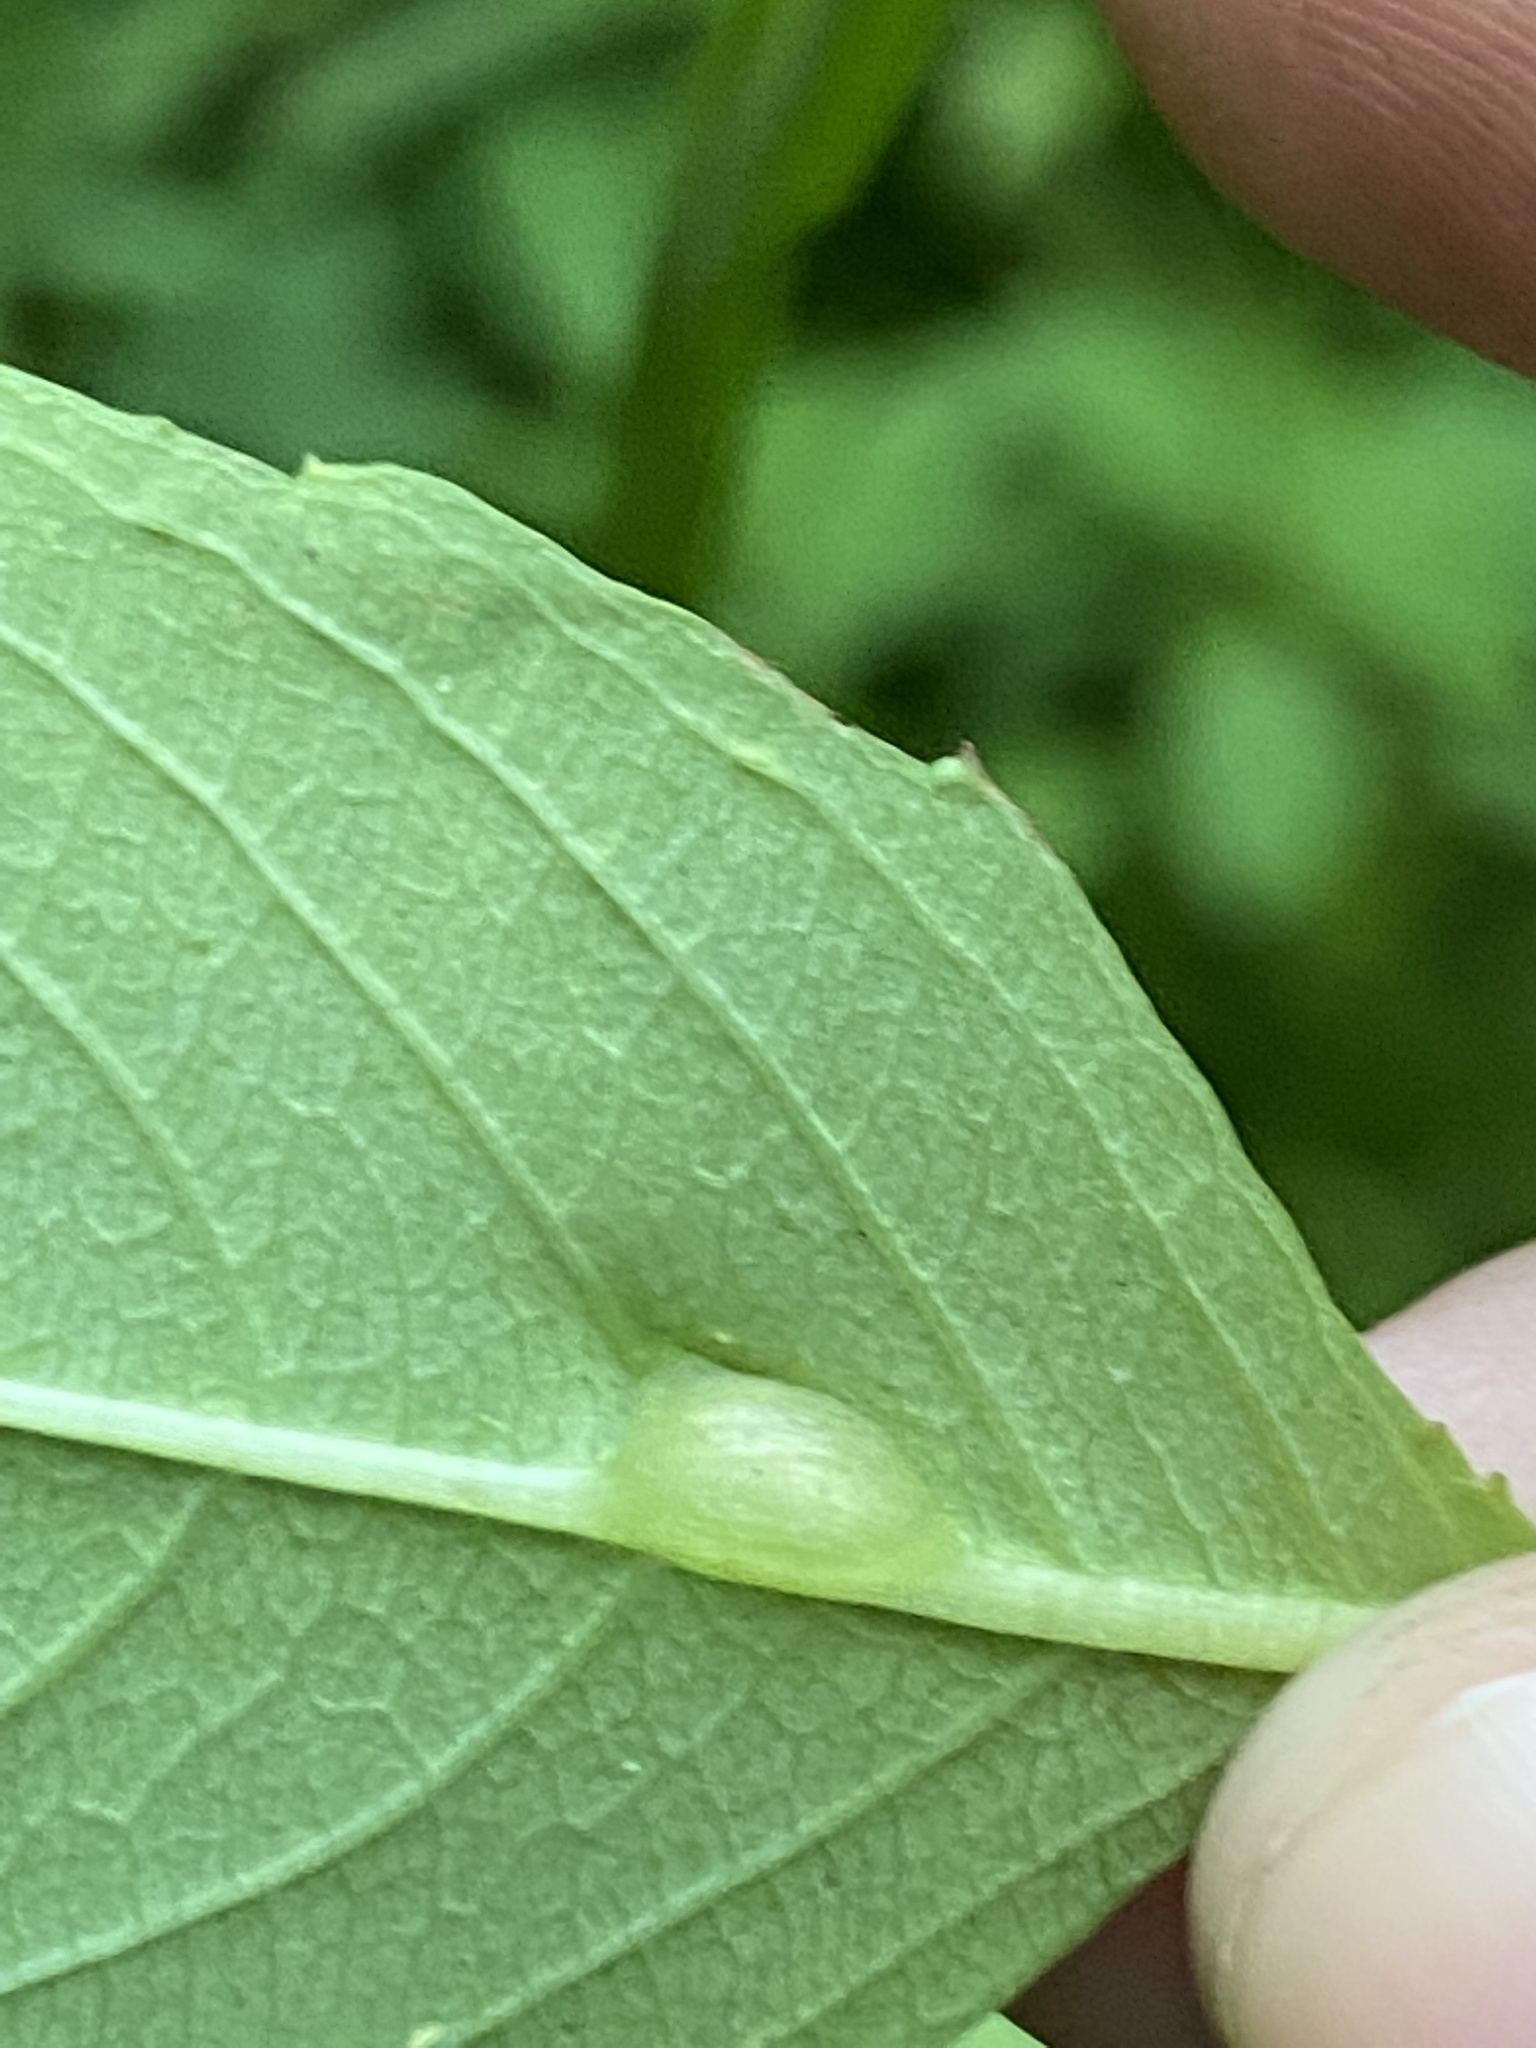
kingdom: Animalia
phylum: Arthropoda
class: Insecta
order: Diptera
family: Cecidomyiidae
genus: Neolasioptera
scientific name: Neolasioptera impatientifolia
